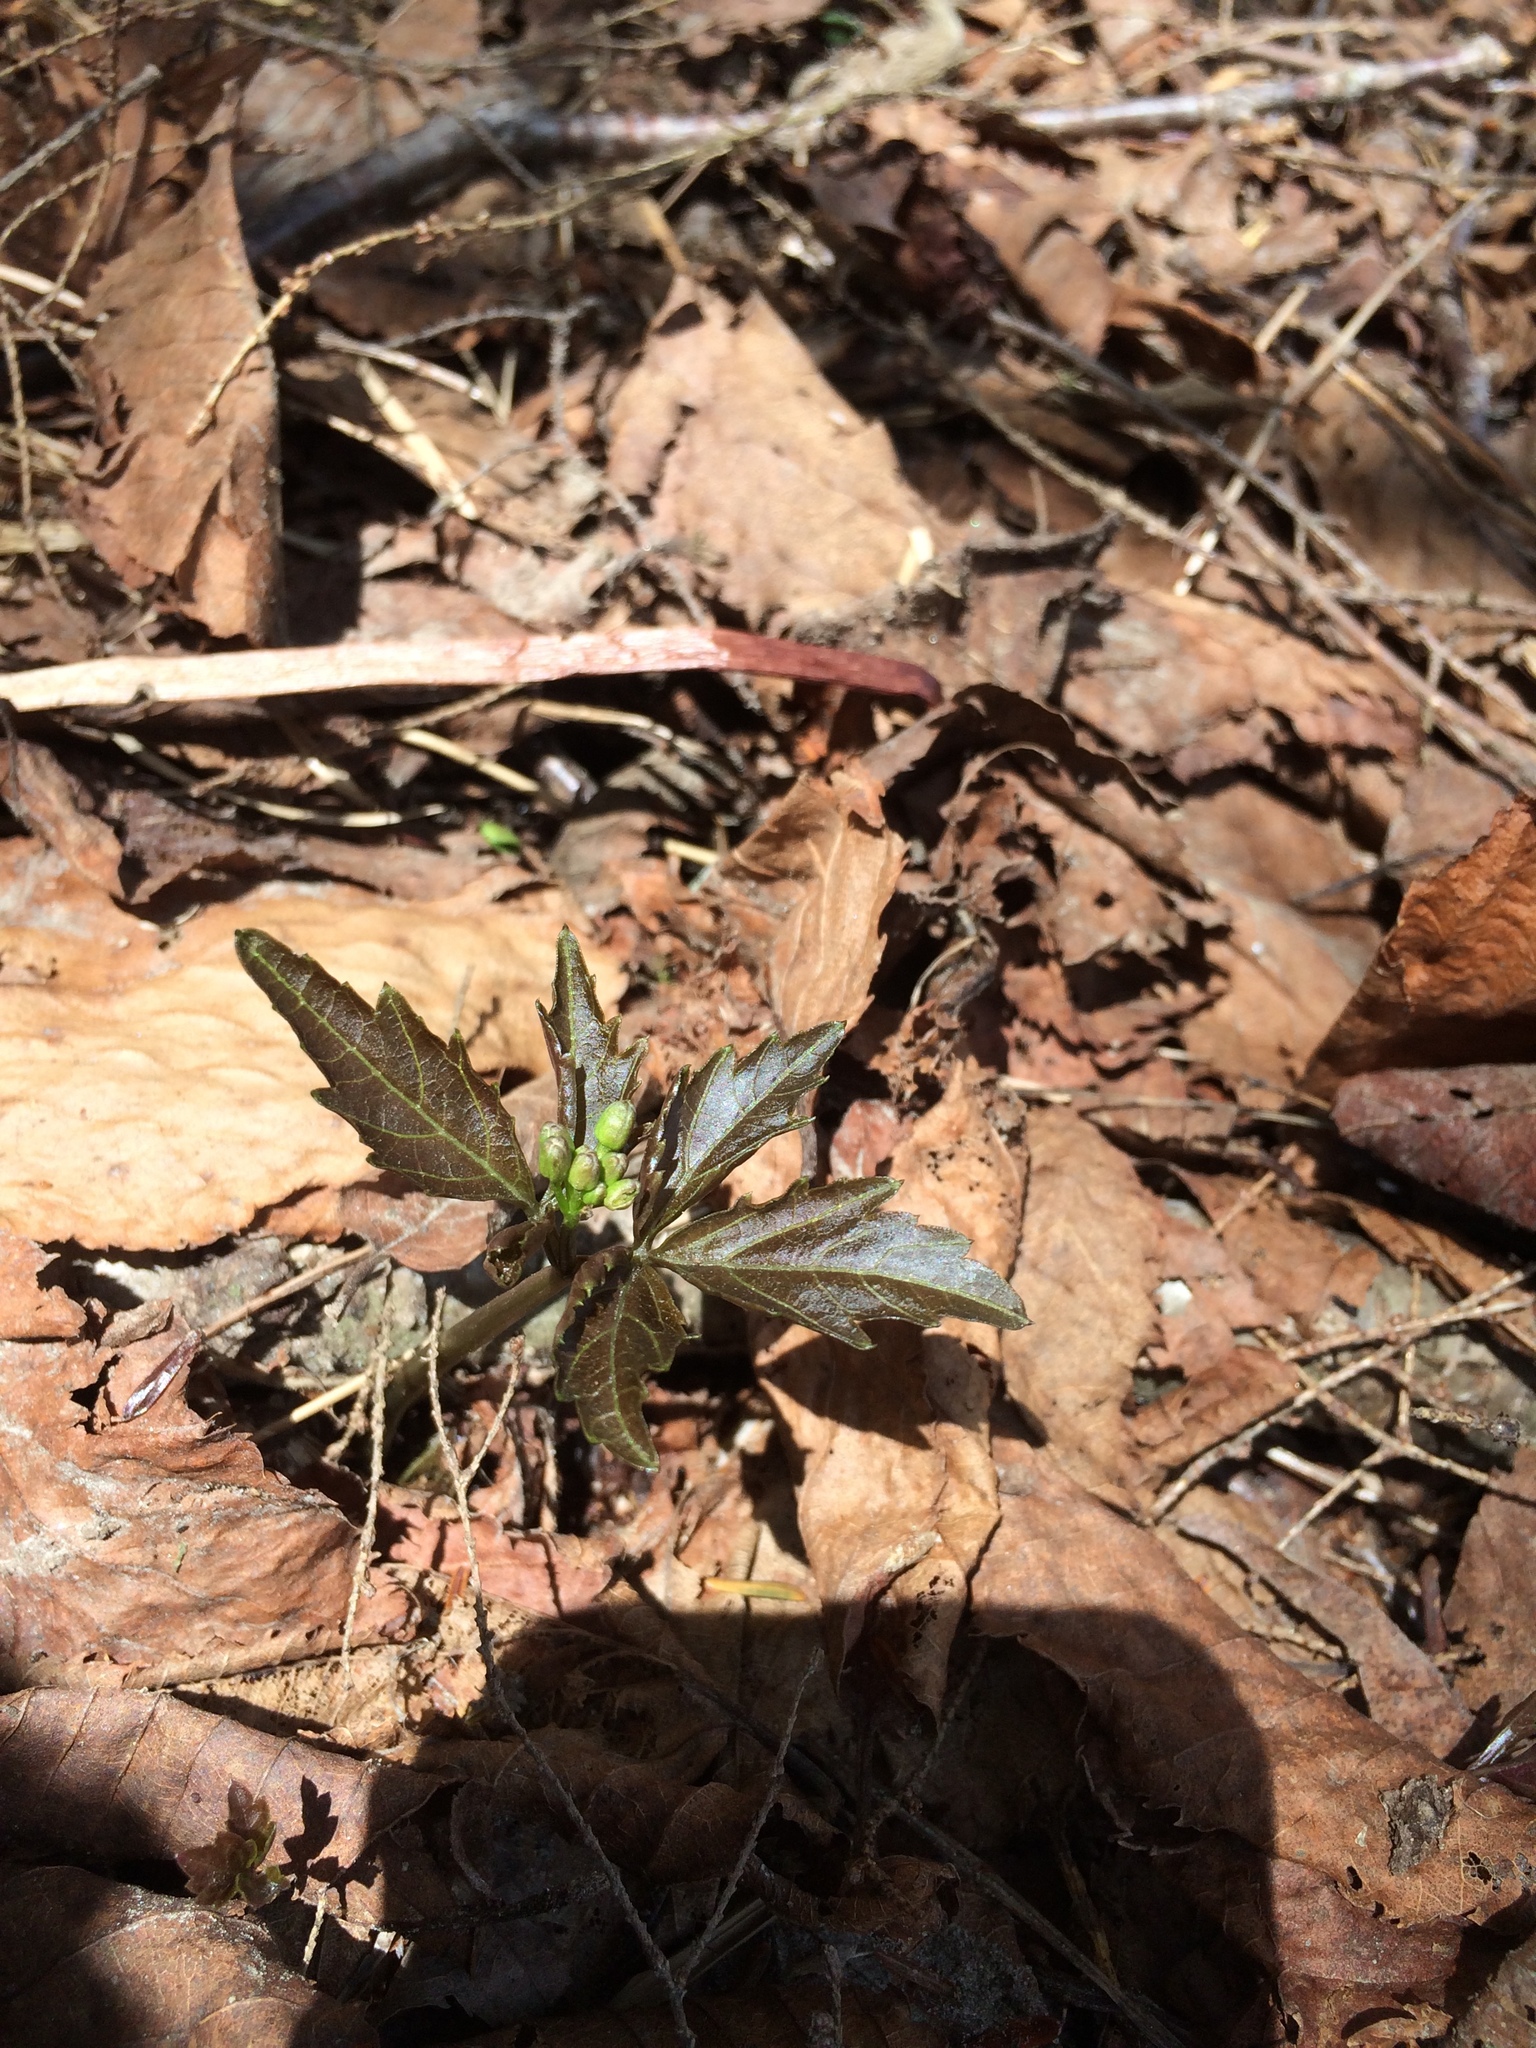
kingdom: Plantae
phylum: Tracheophyta
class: Magnoliopsida
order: Brassicales
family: Brassicaceae
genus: Cardamine
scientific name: Cardamine diphylla
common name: Broad-leaved toothwort
